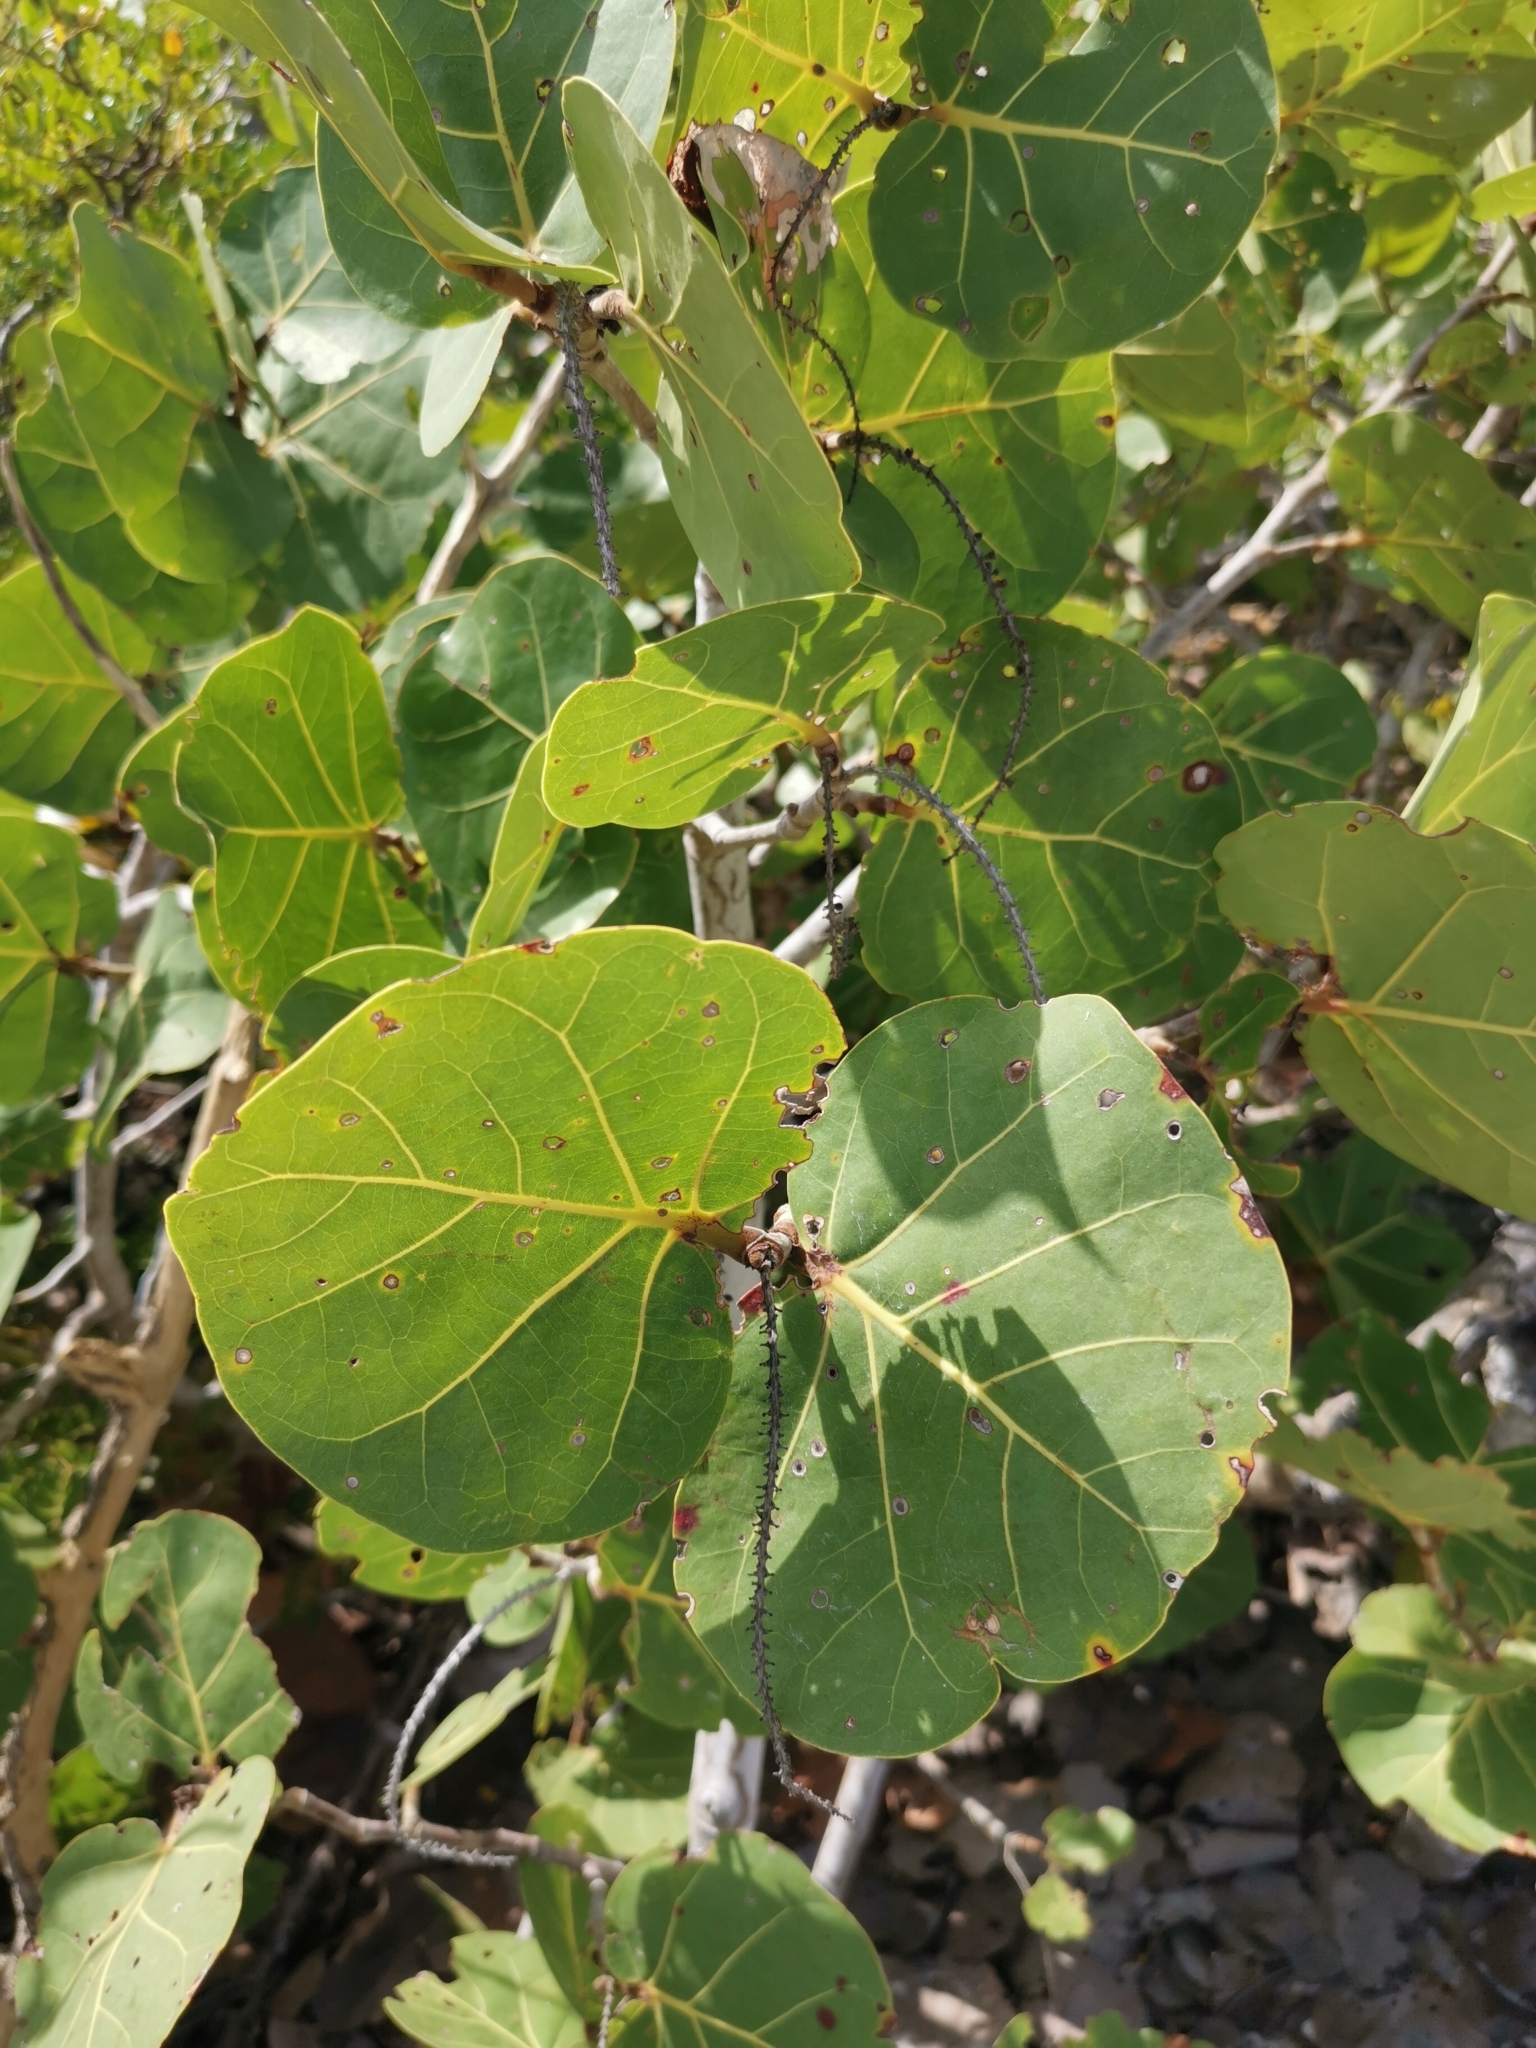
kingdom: Plantae
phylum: Tracheophyta
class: Magnoliopsida
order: Caryophyllales
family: Polygonaceae
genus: Coccoloba
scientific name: Coccoloba uvifera
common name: Seagrape
